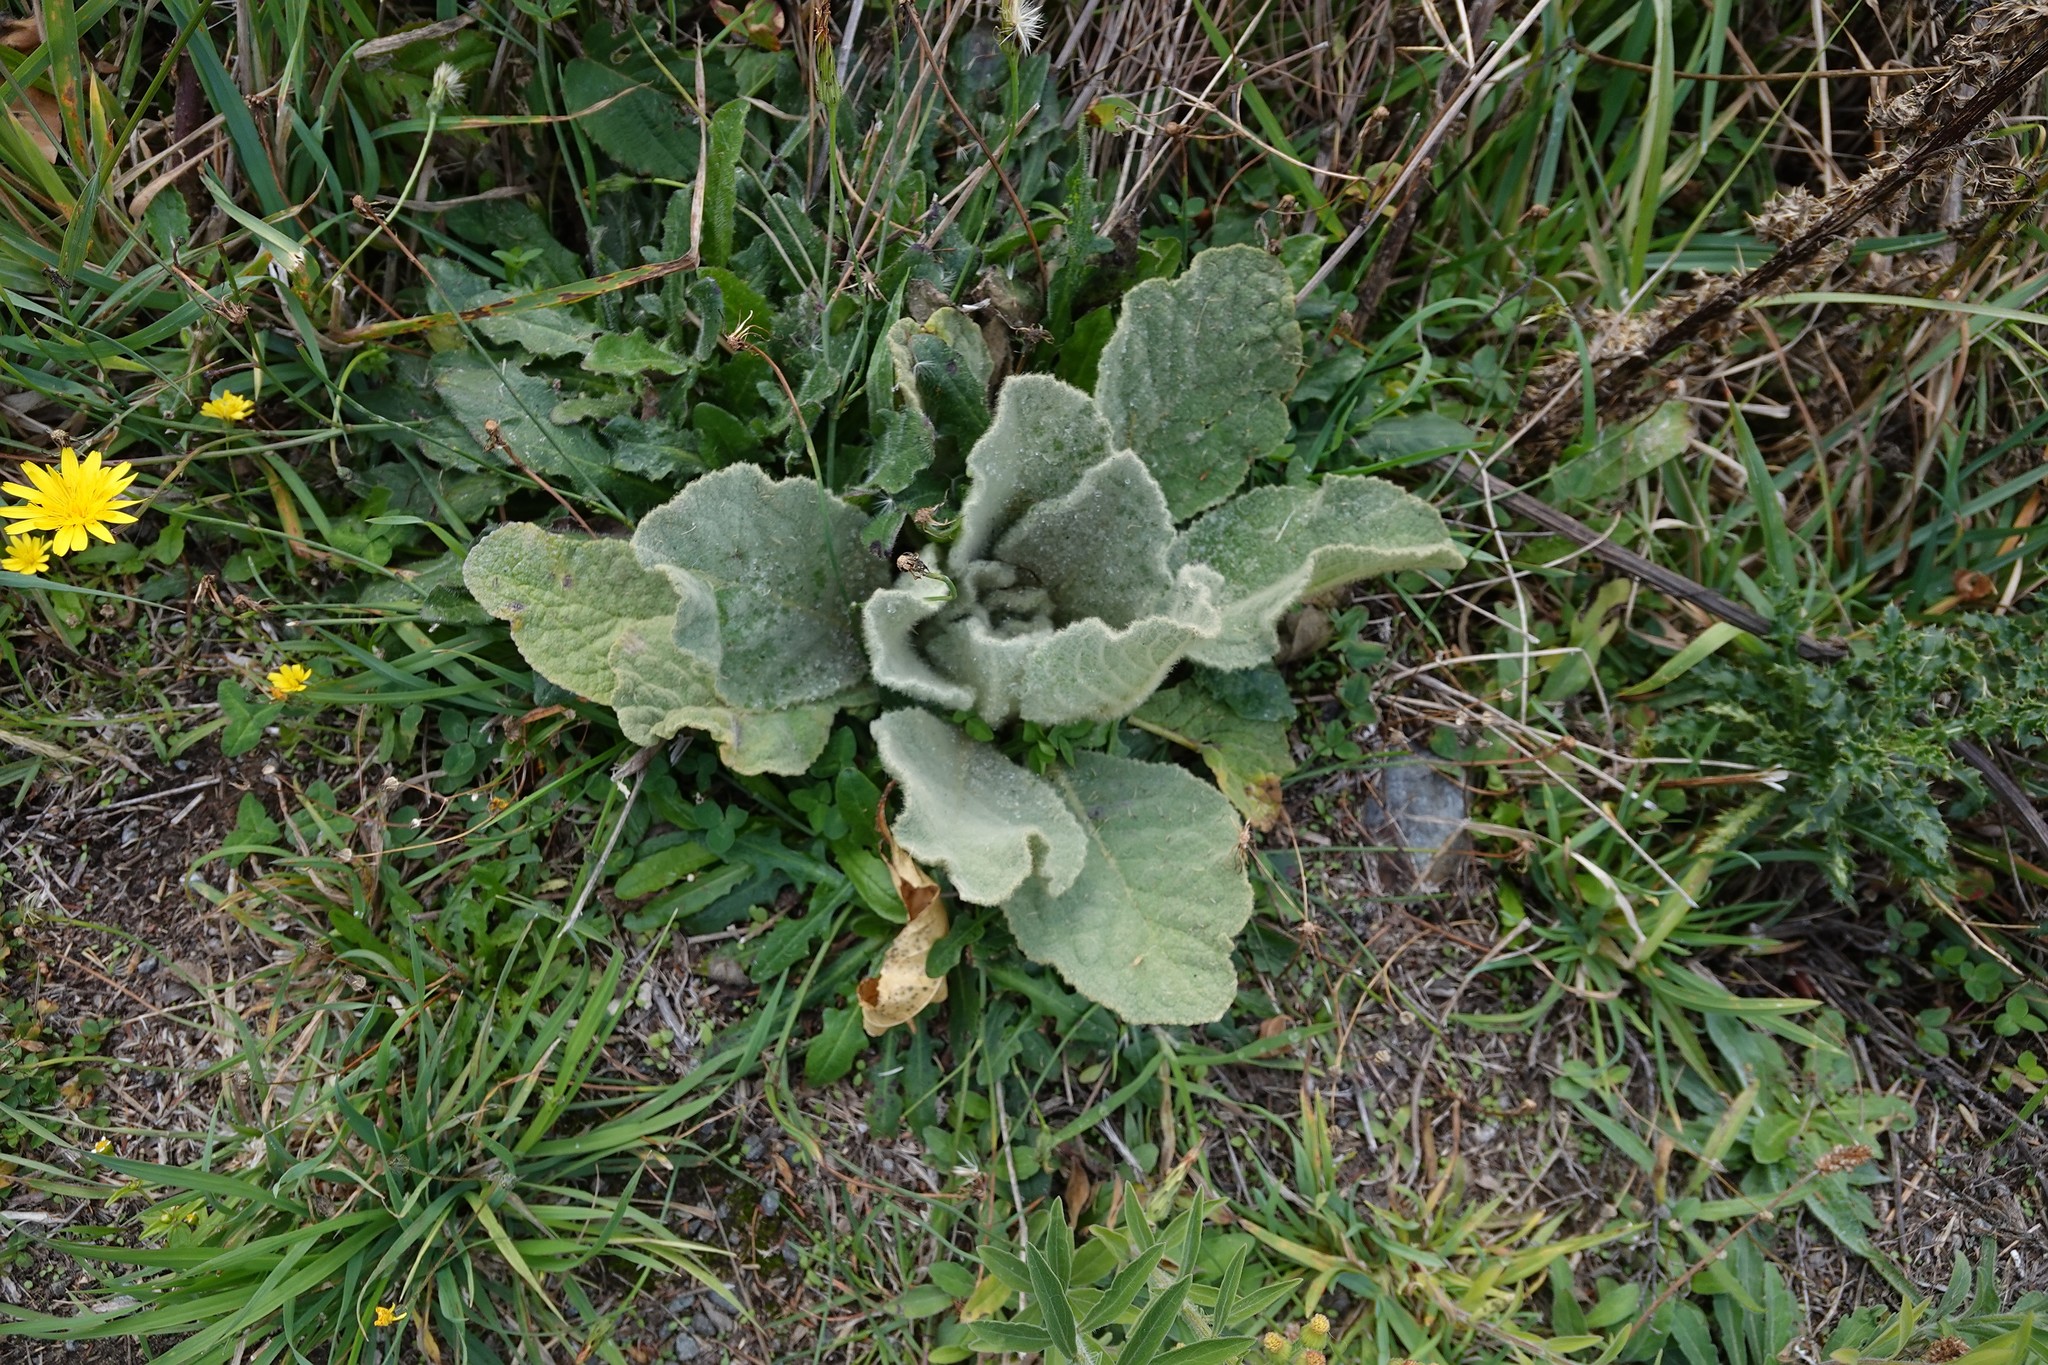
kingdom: Plantae
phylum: Tracheophyta
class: Magnoliopsida
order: Lamiales
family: Scrophulariaceae
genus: Verbascum
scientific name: Verbascum thapsus
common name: Common mullein
